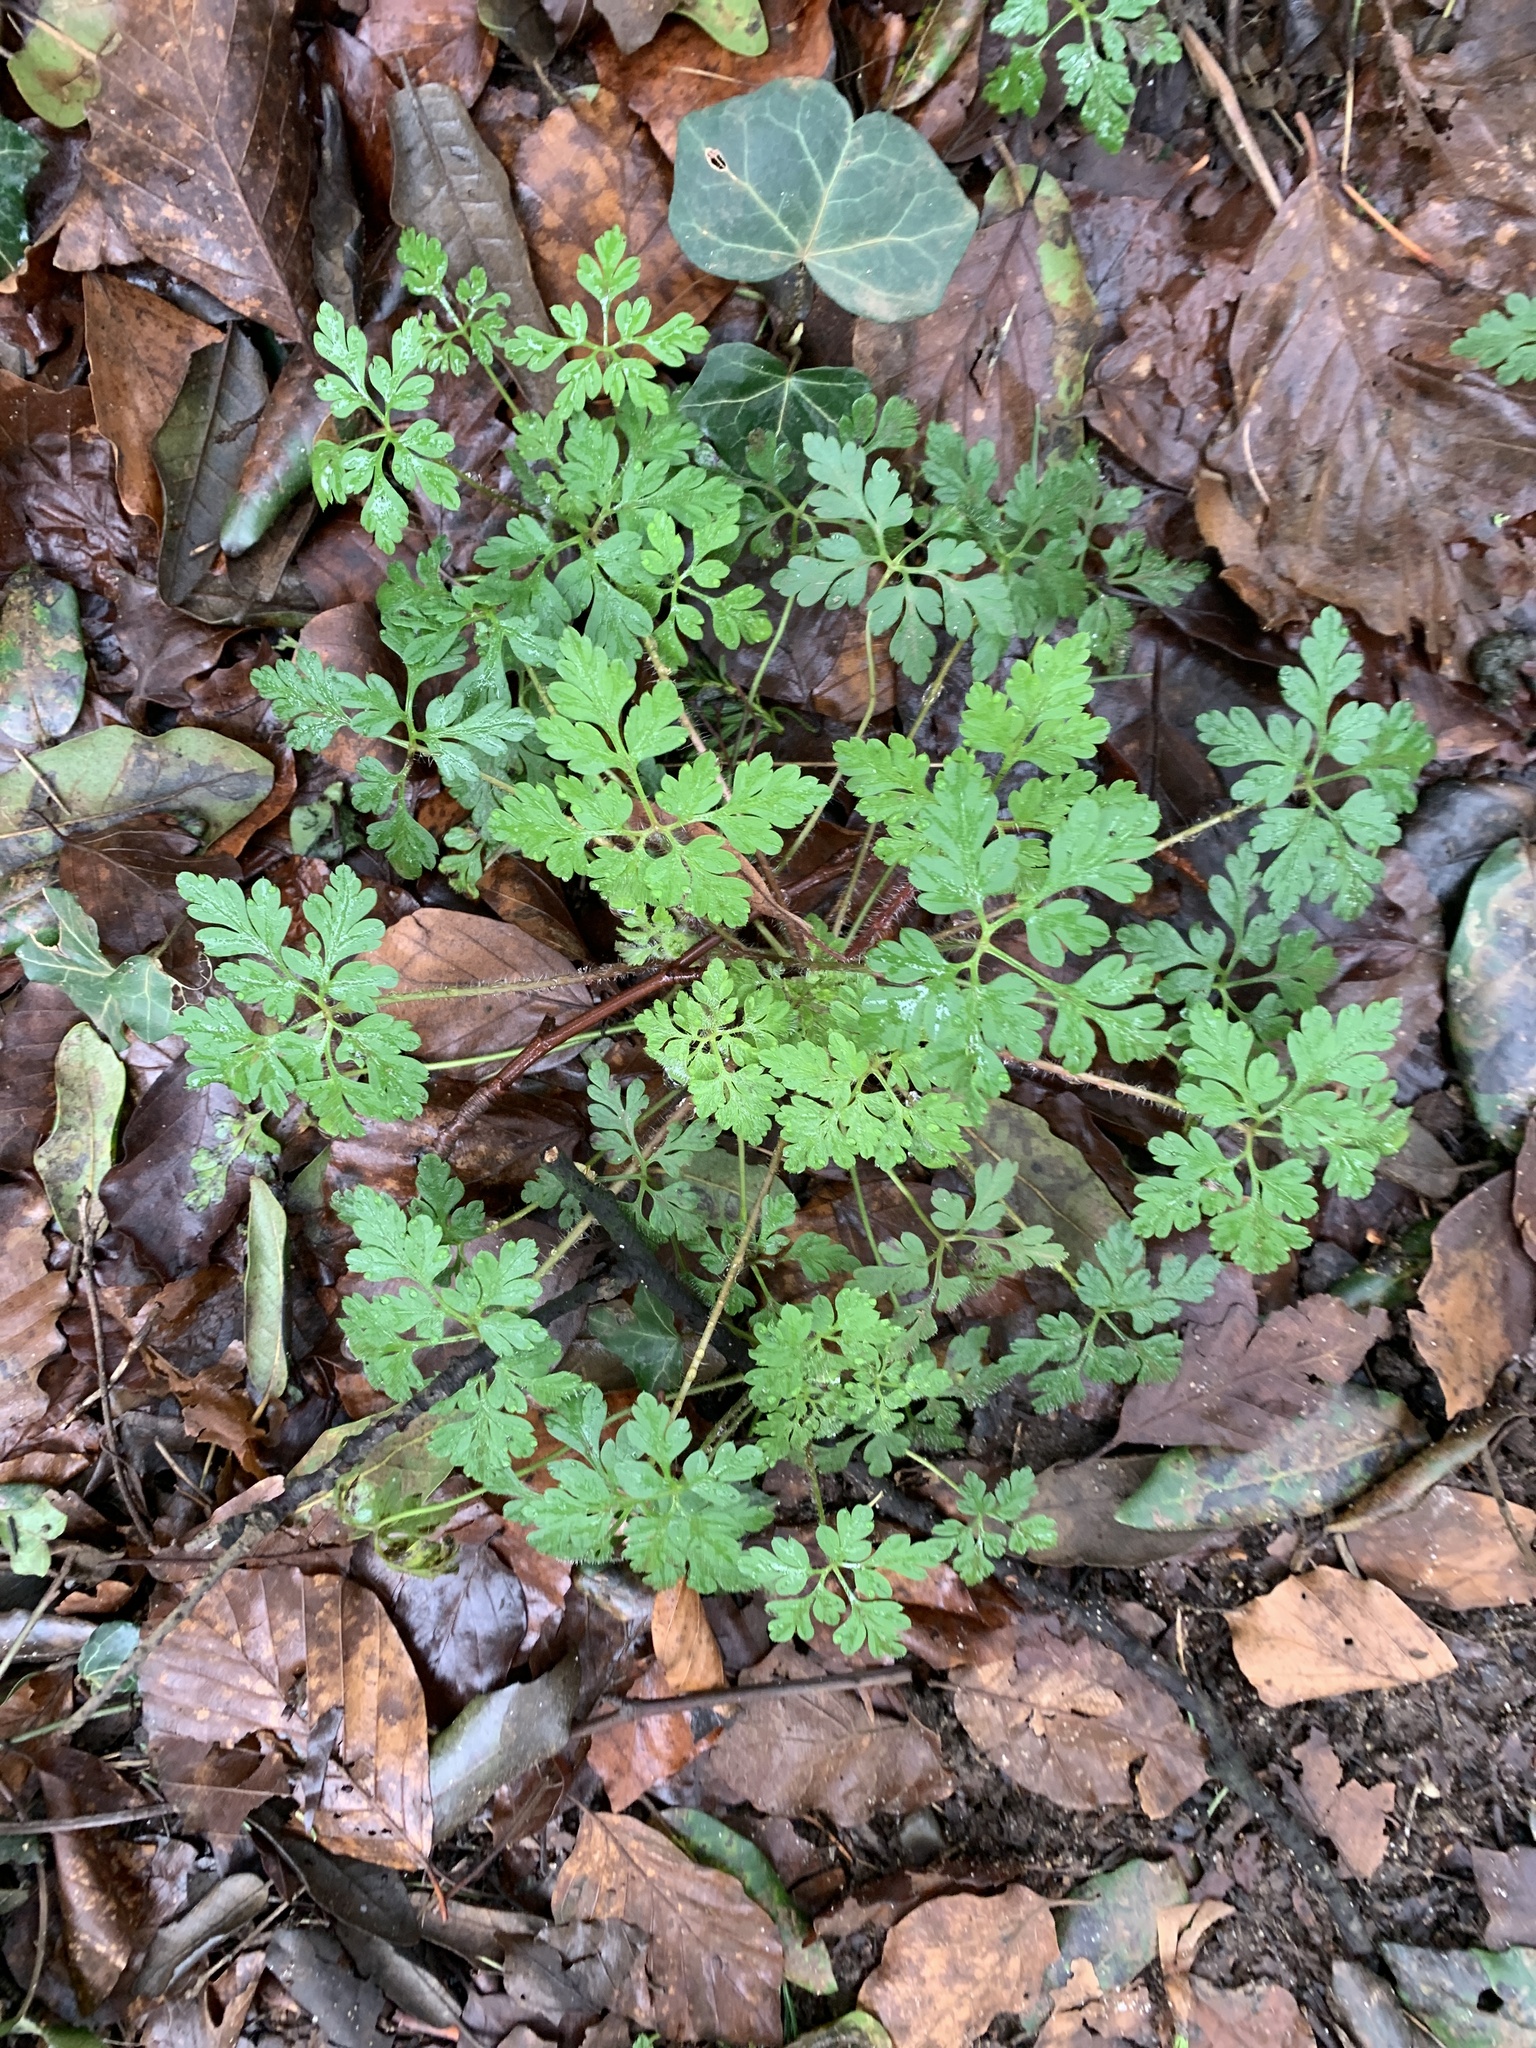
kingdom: Plantae
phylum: Tracheophyta
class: Magnoliopsida
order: Geraniales
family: Geraniaceae
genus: Geranium
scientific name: Geranium robertianum
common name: Herb-robert
